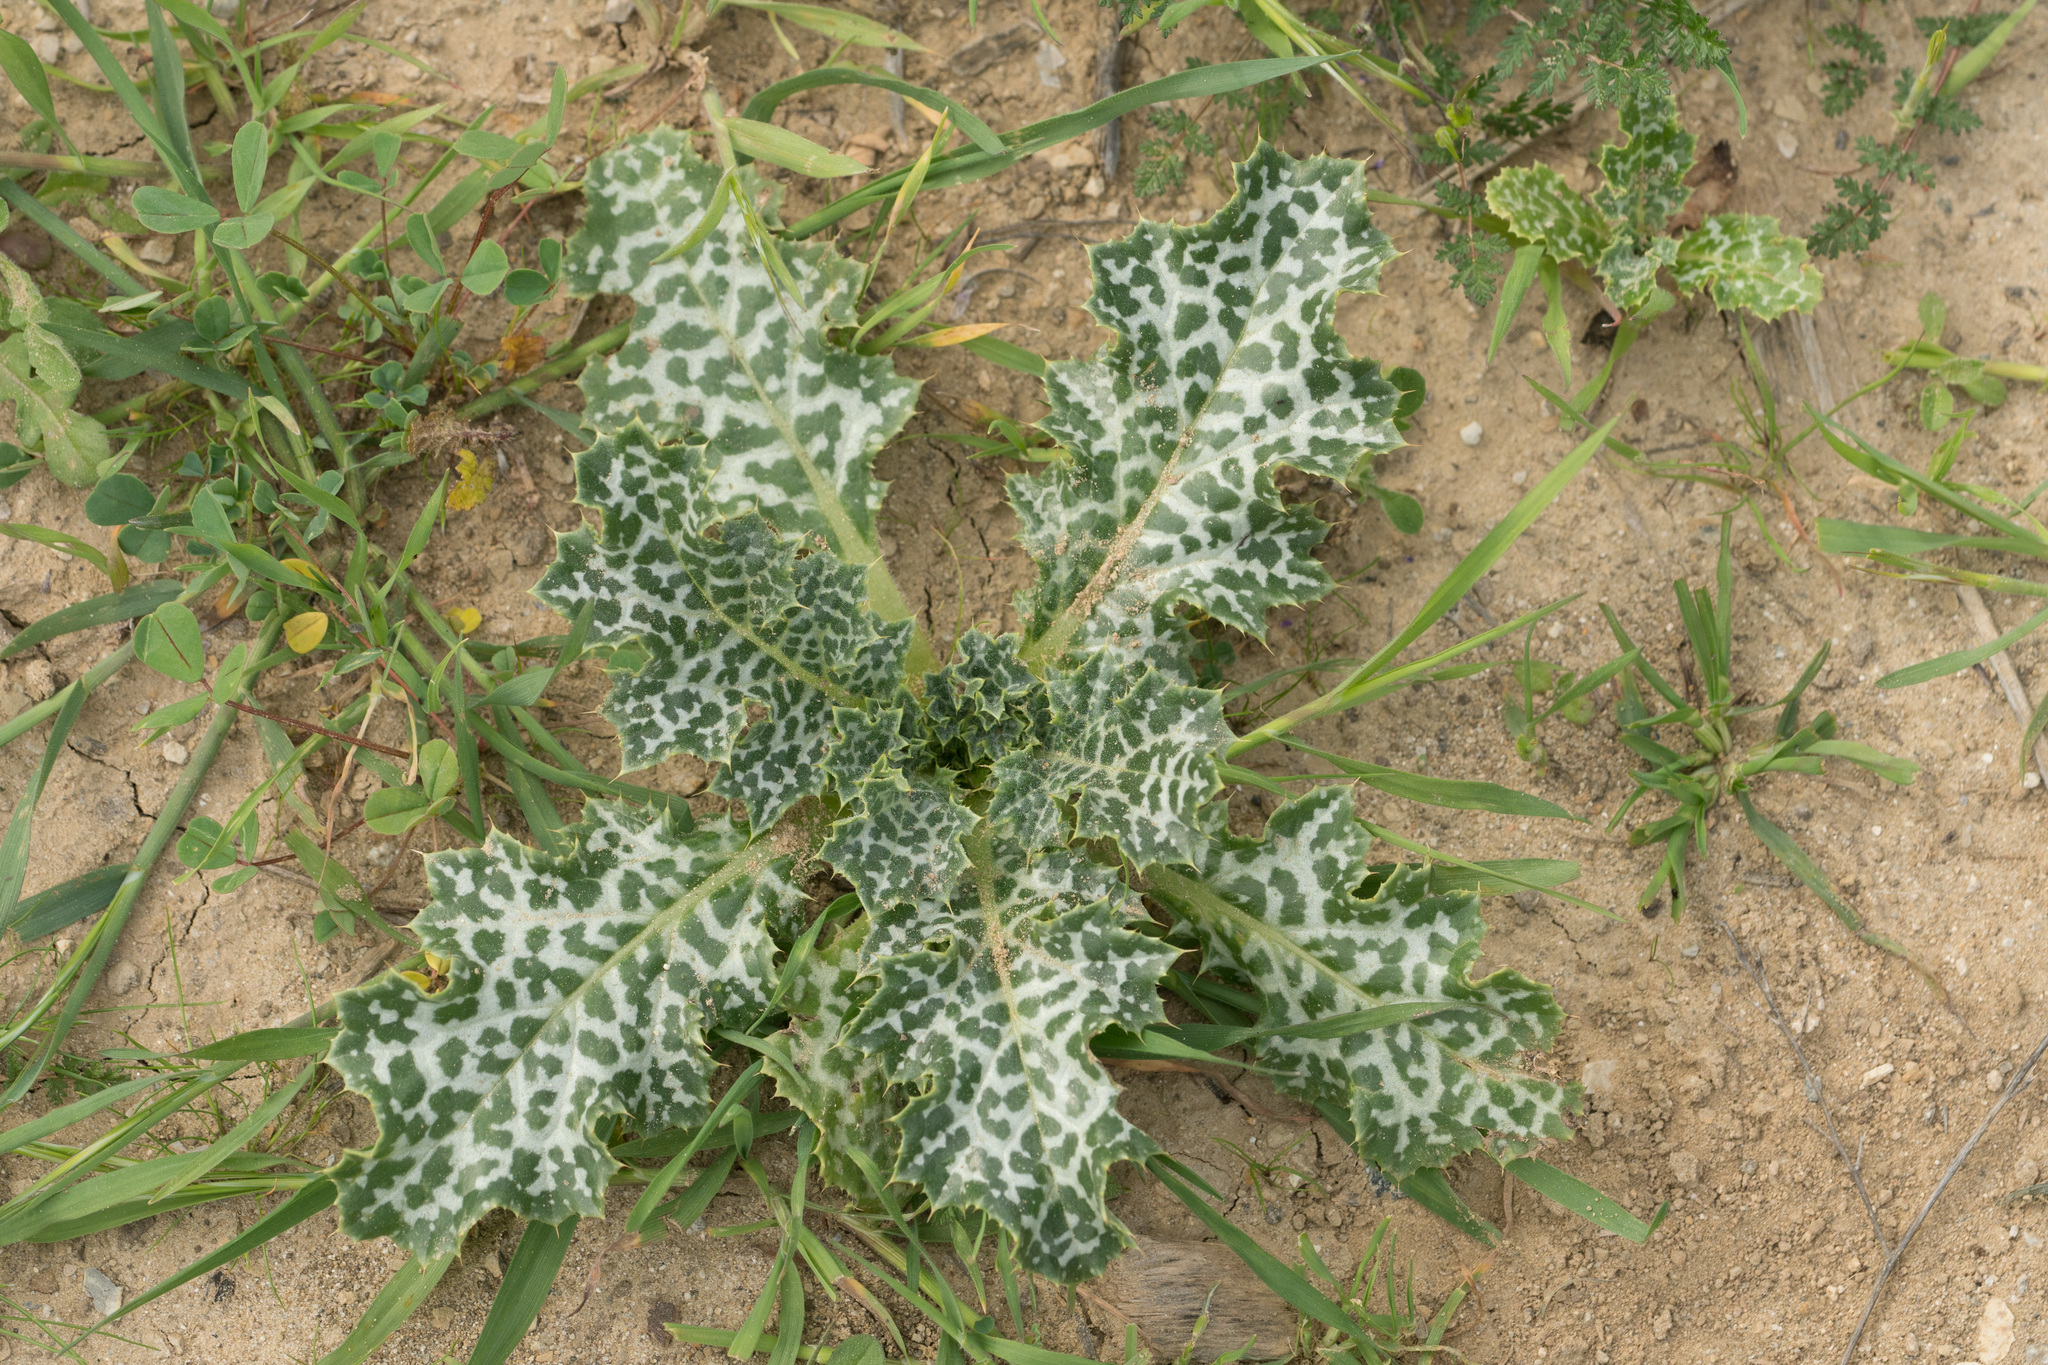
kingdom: Plantae
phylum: Tracheophyta
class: Magnoliopsida
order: Asterales
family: Asteraceae
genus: Silybum
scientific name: Silybum marianum
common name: Milk thistle
